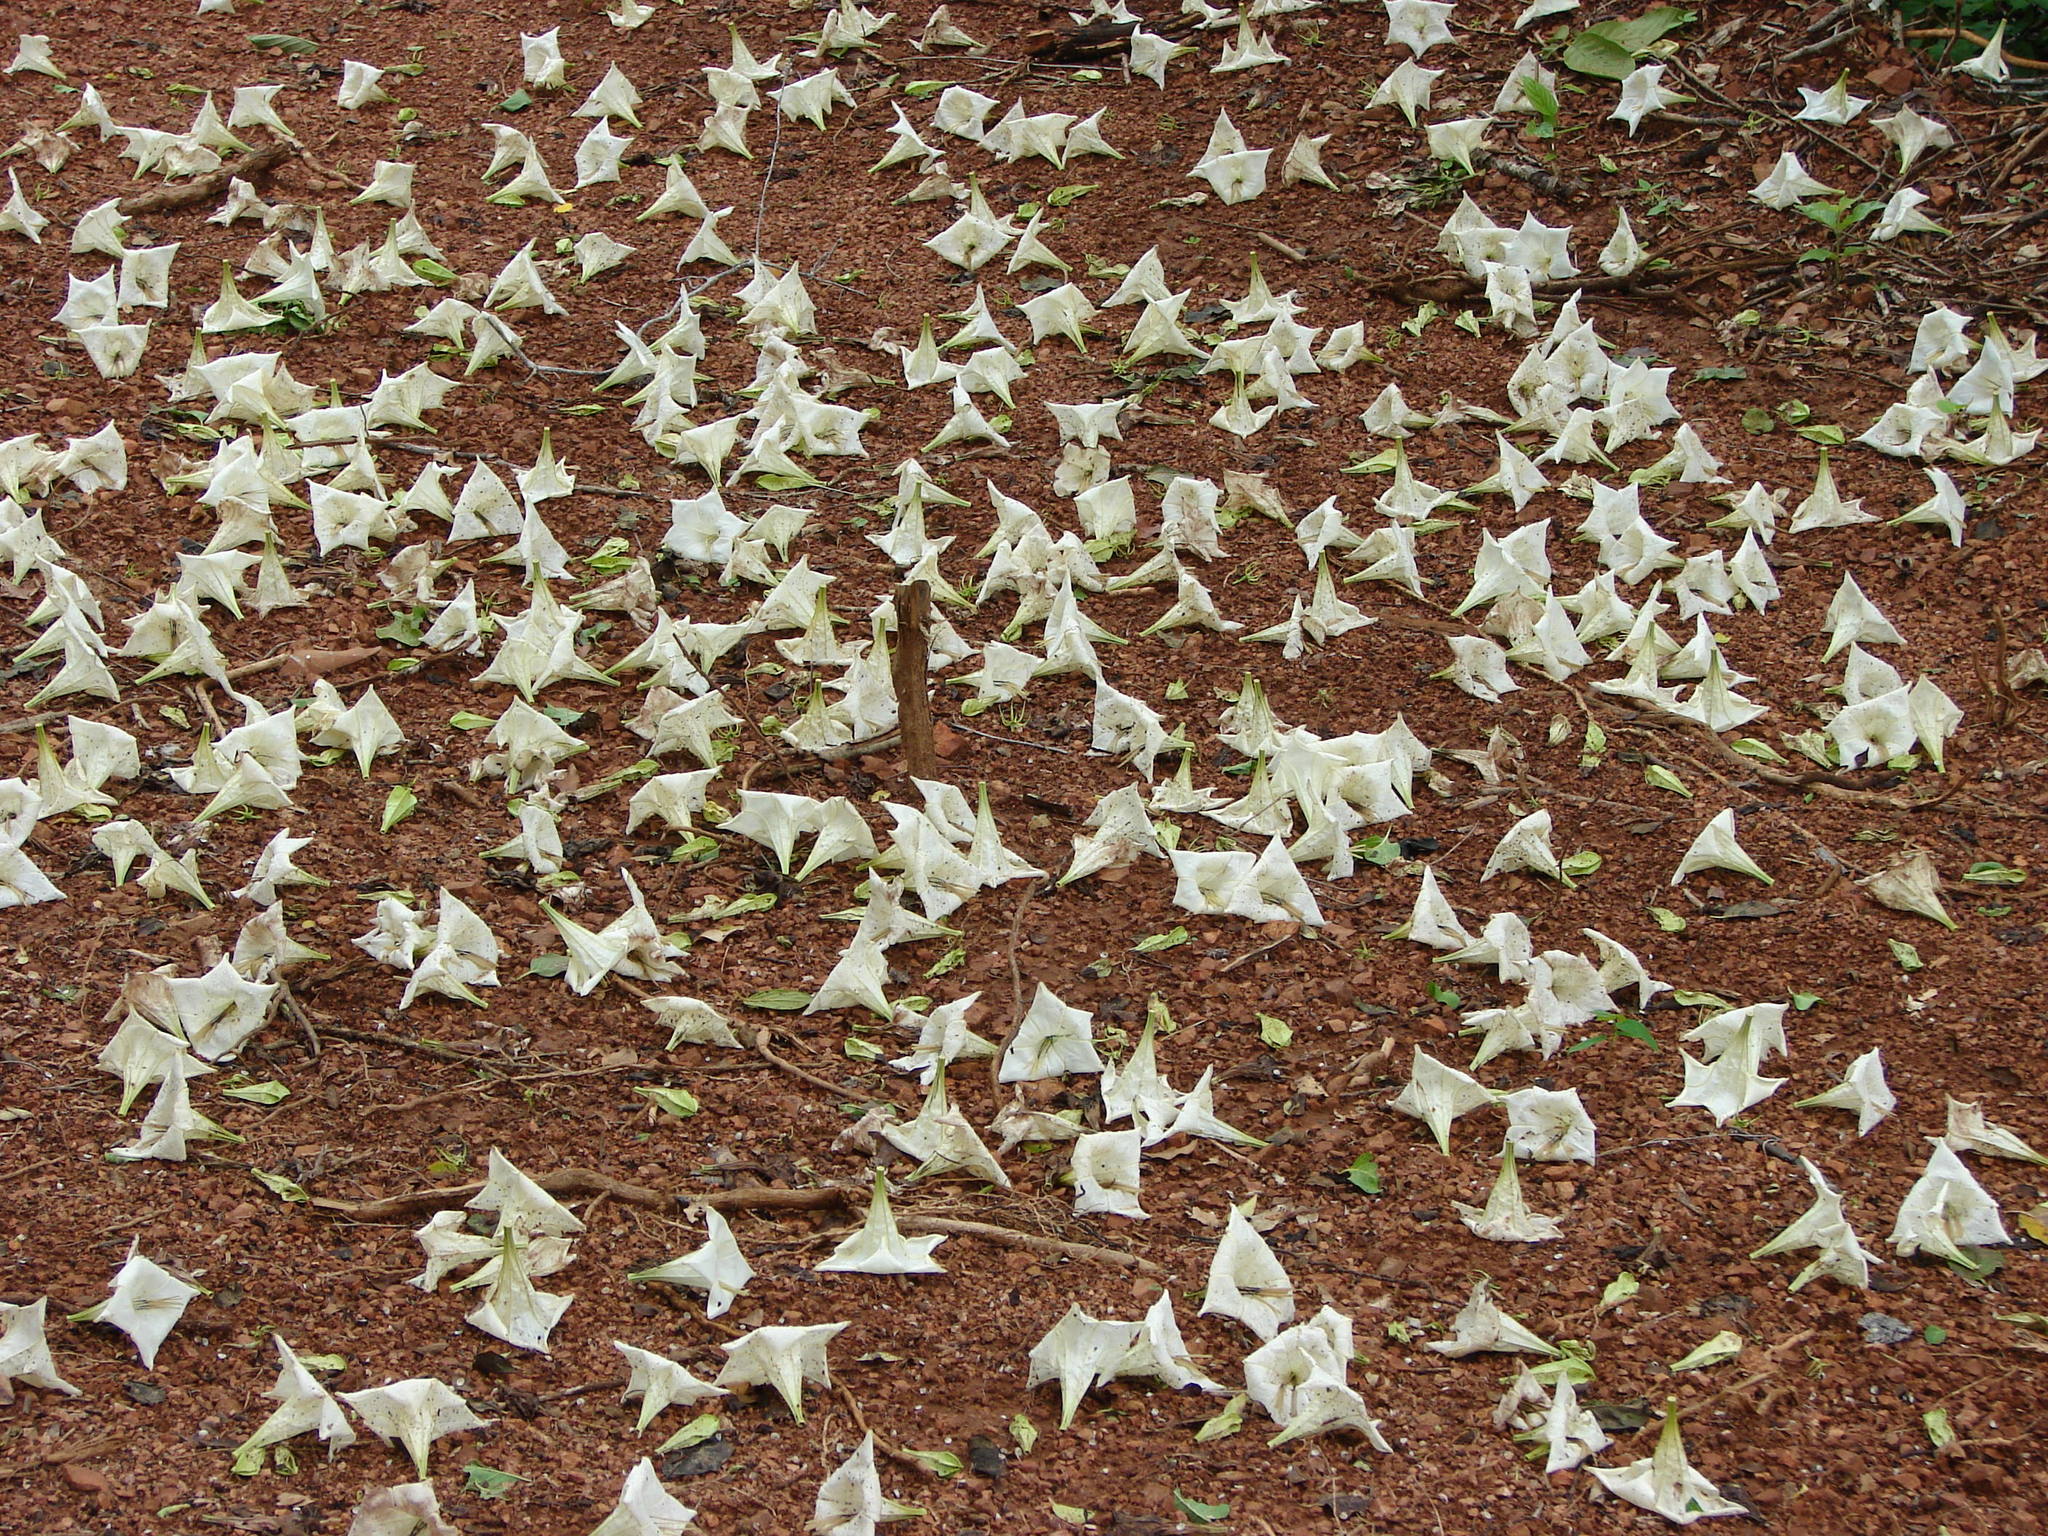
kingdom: Plantae
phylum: Tracheophyta
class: Magnoliopsida
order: Gentianales
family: Rubiaceae
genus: Hintonia
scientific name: Hintonia latiflora
